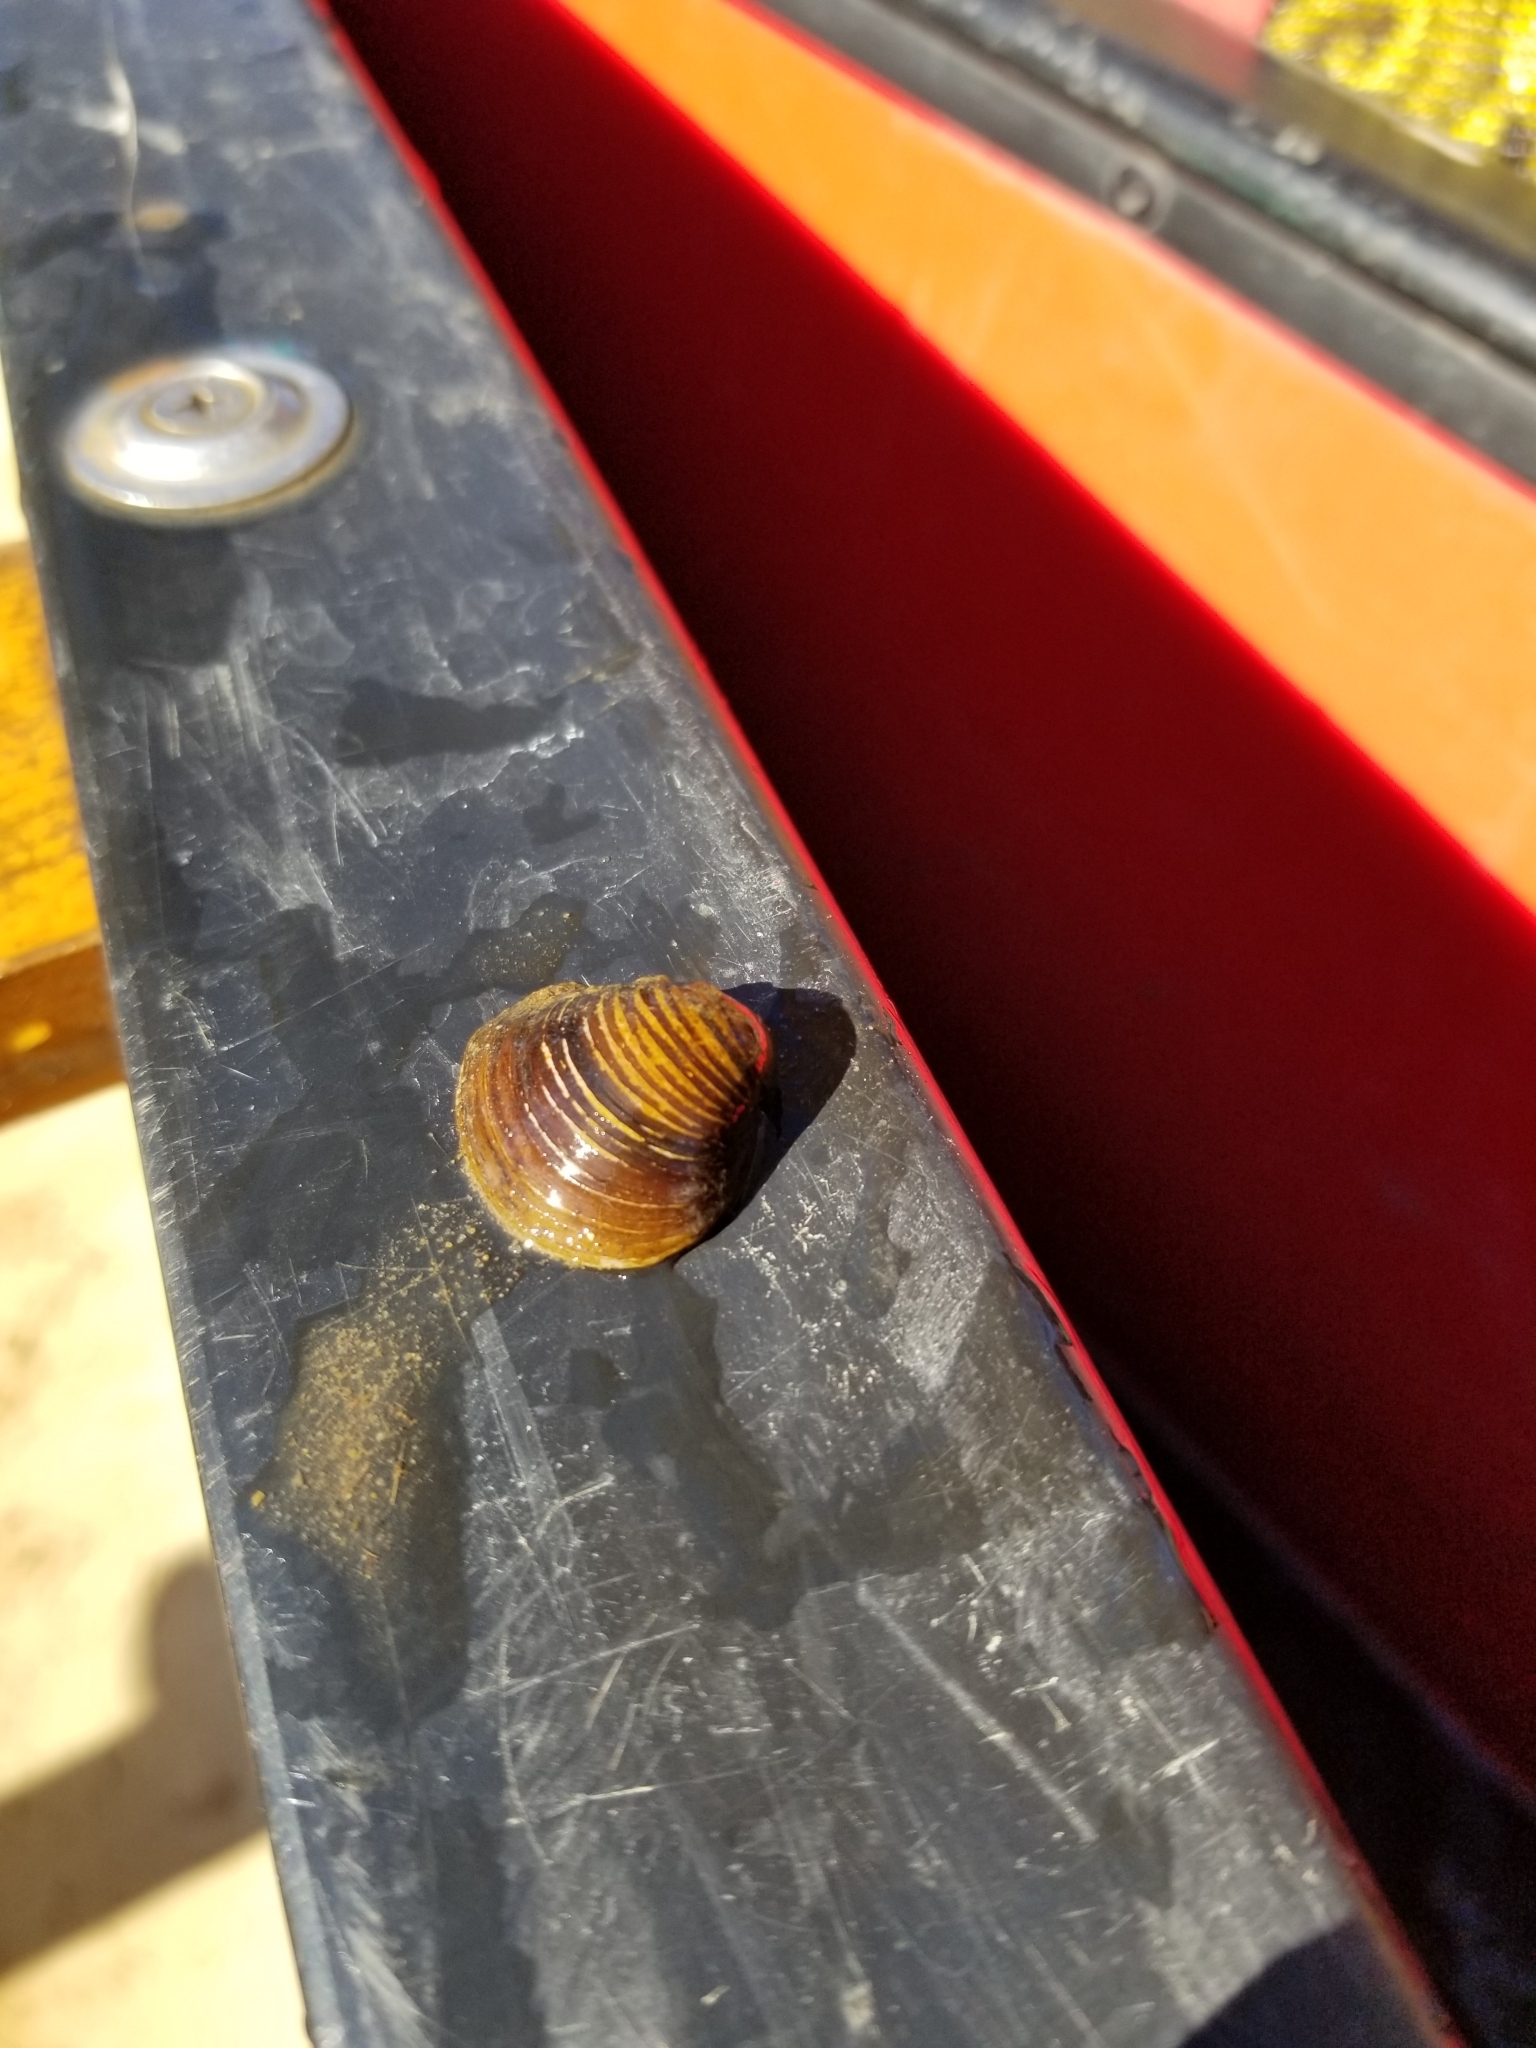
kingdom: Animalia
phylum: Mollusca
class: Bivalvia
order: Venerida
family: Cyrenidae
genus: Corbicula
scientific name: Corbicula fluminea
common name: Asian clam
